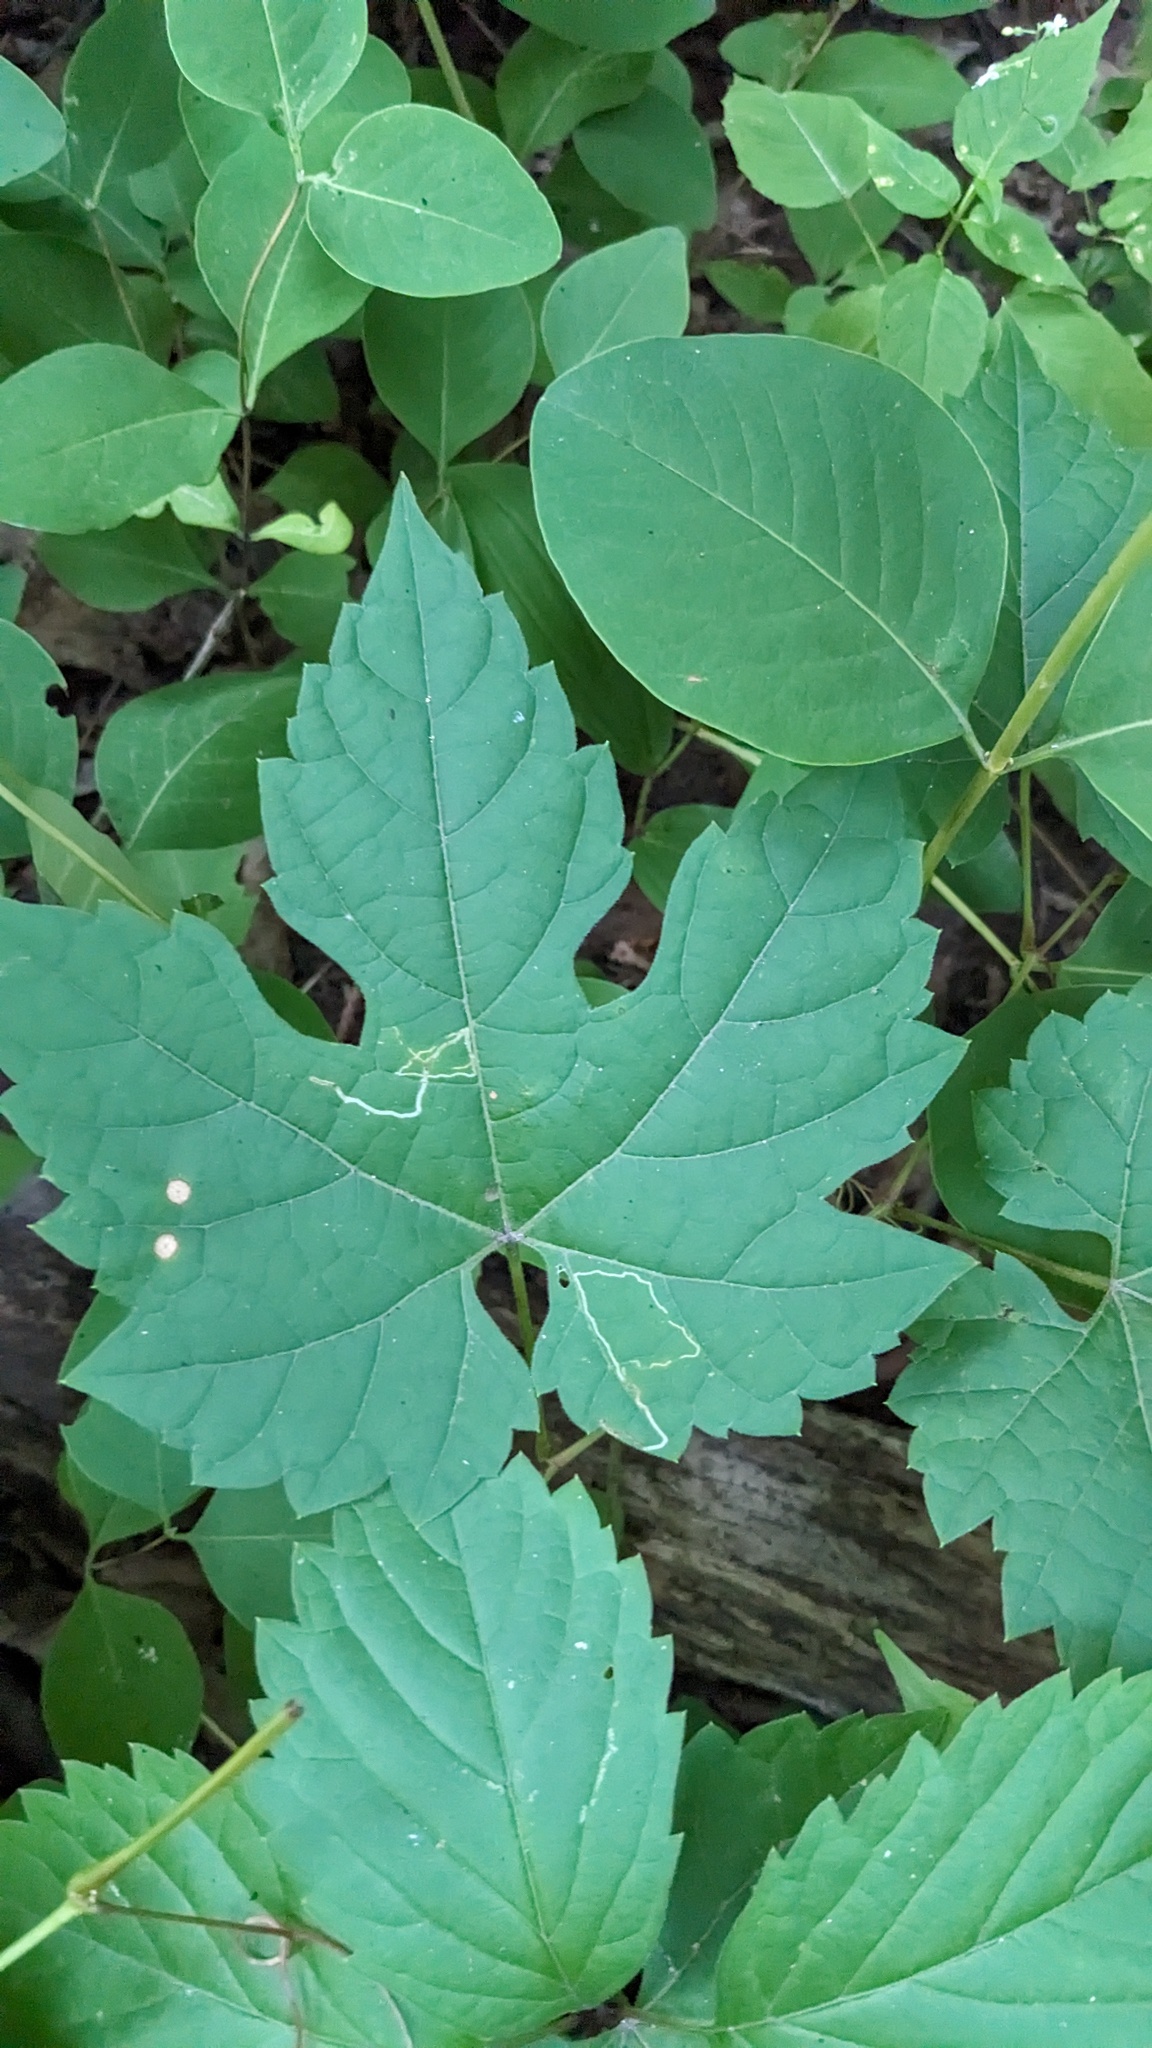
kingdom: Animalia
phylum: Arthropoda
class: Insecta
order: Lepidoptera
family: Gracillariidae
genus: Phyllocnistis
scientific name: Phyllocnistis vitifoliella
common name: Grape leaf-miner moth
